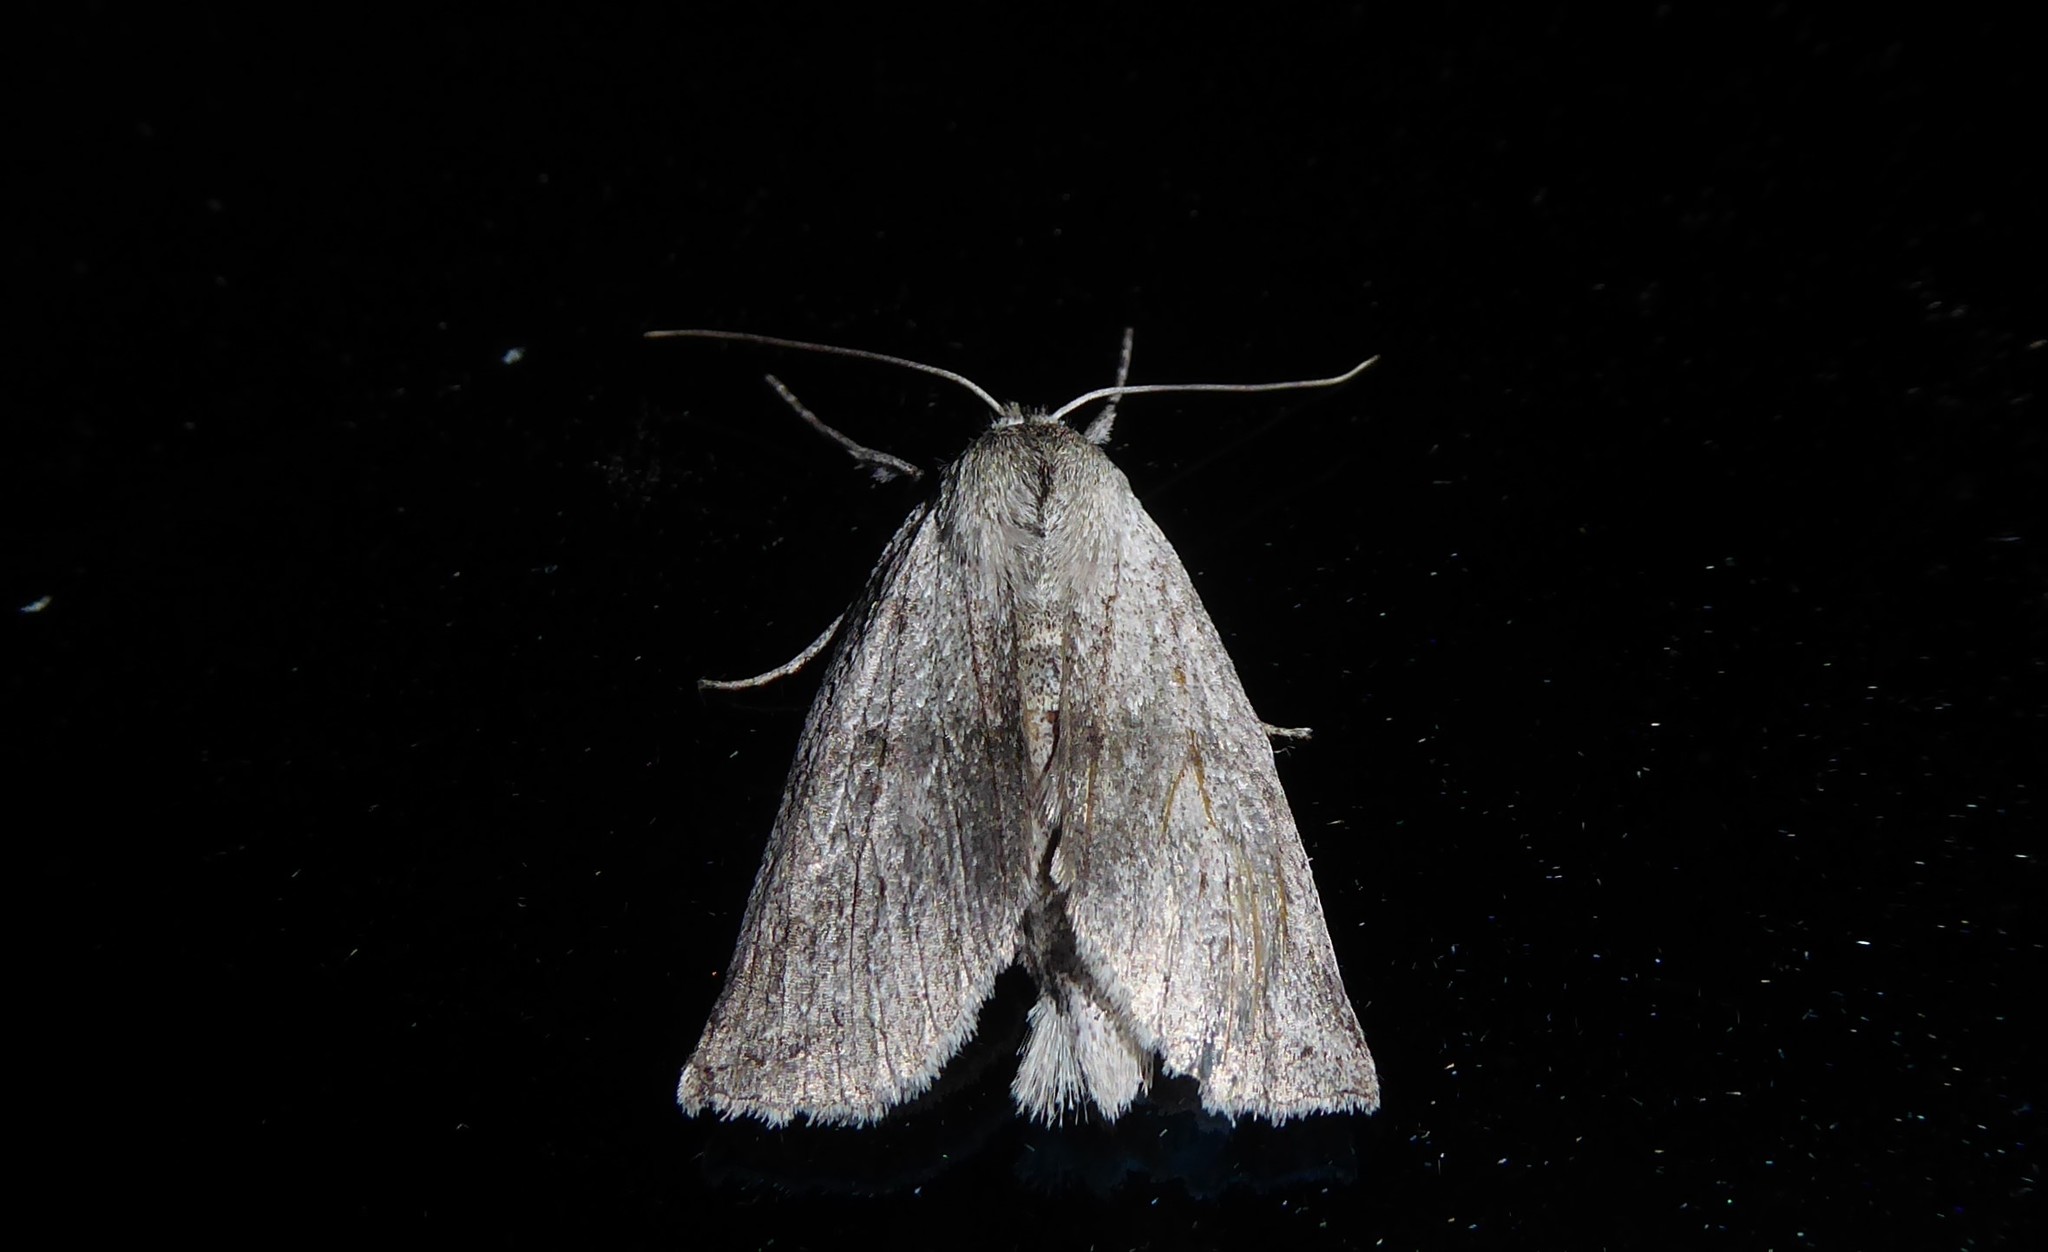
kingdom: Animalia
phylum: Arthropoda
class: Insecta
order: Lepidoptera
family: Geometridae
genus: Declana
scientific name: Declana leptomera
